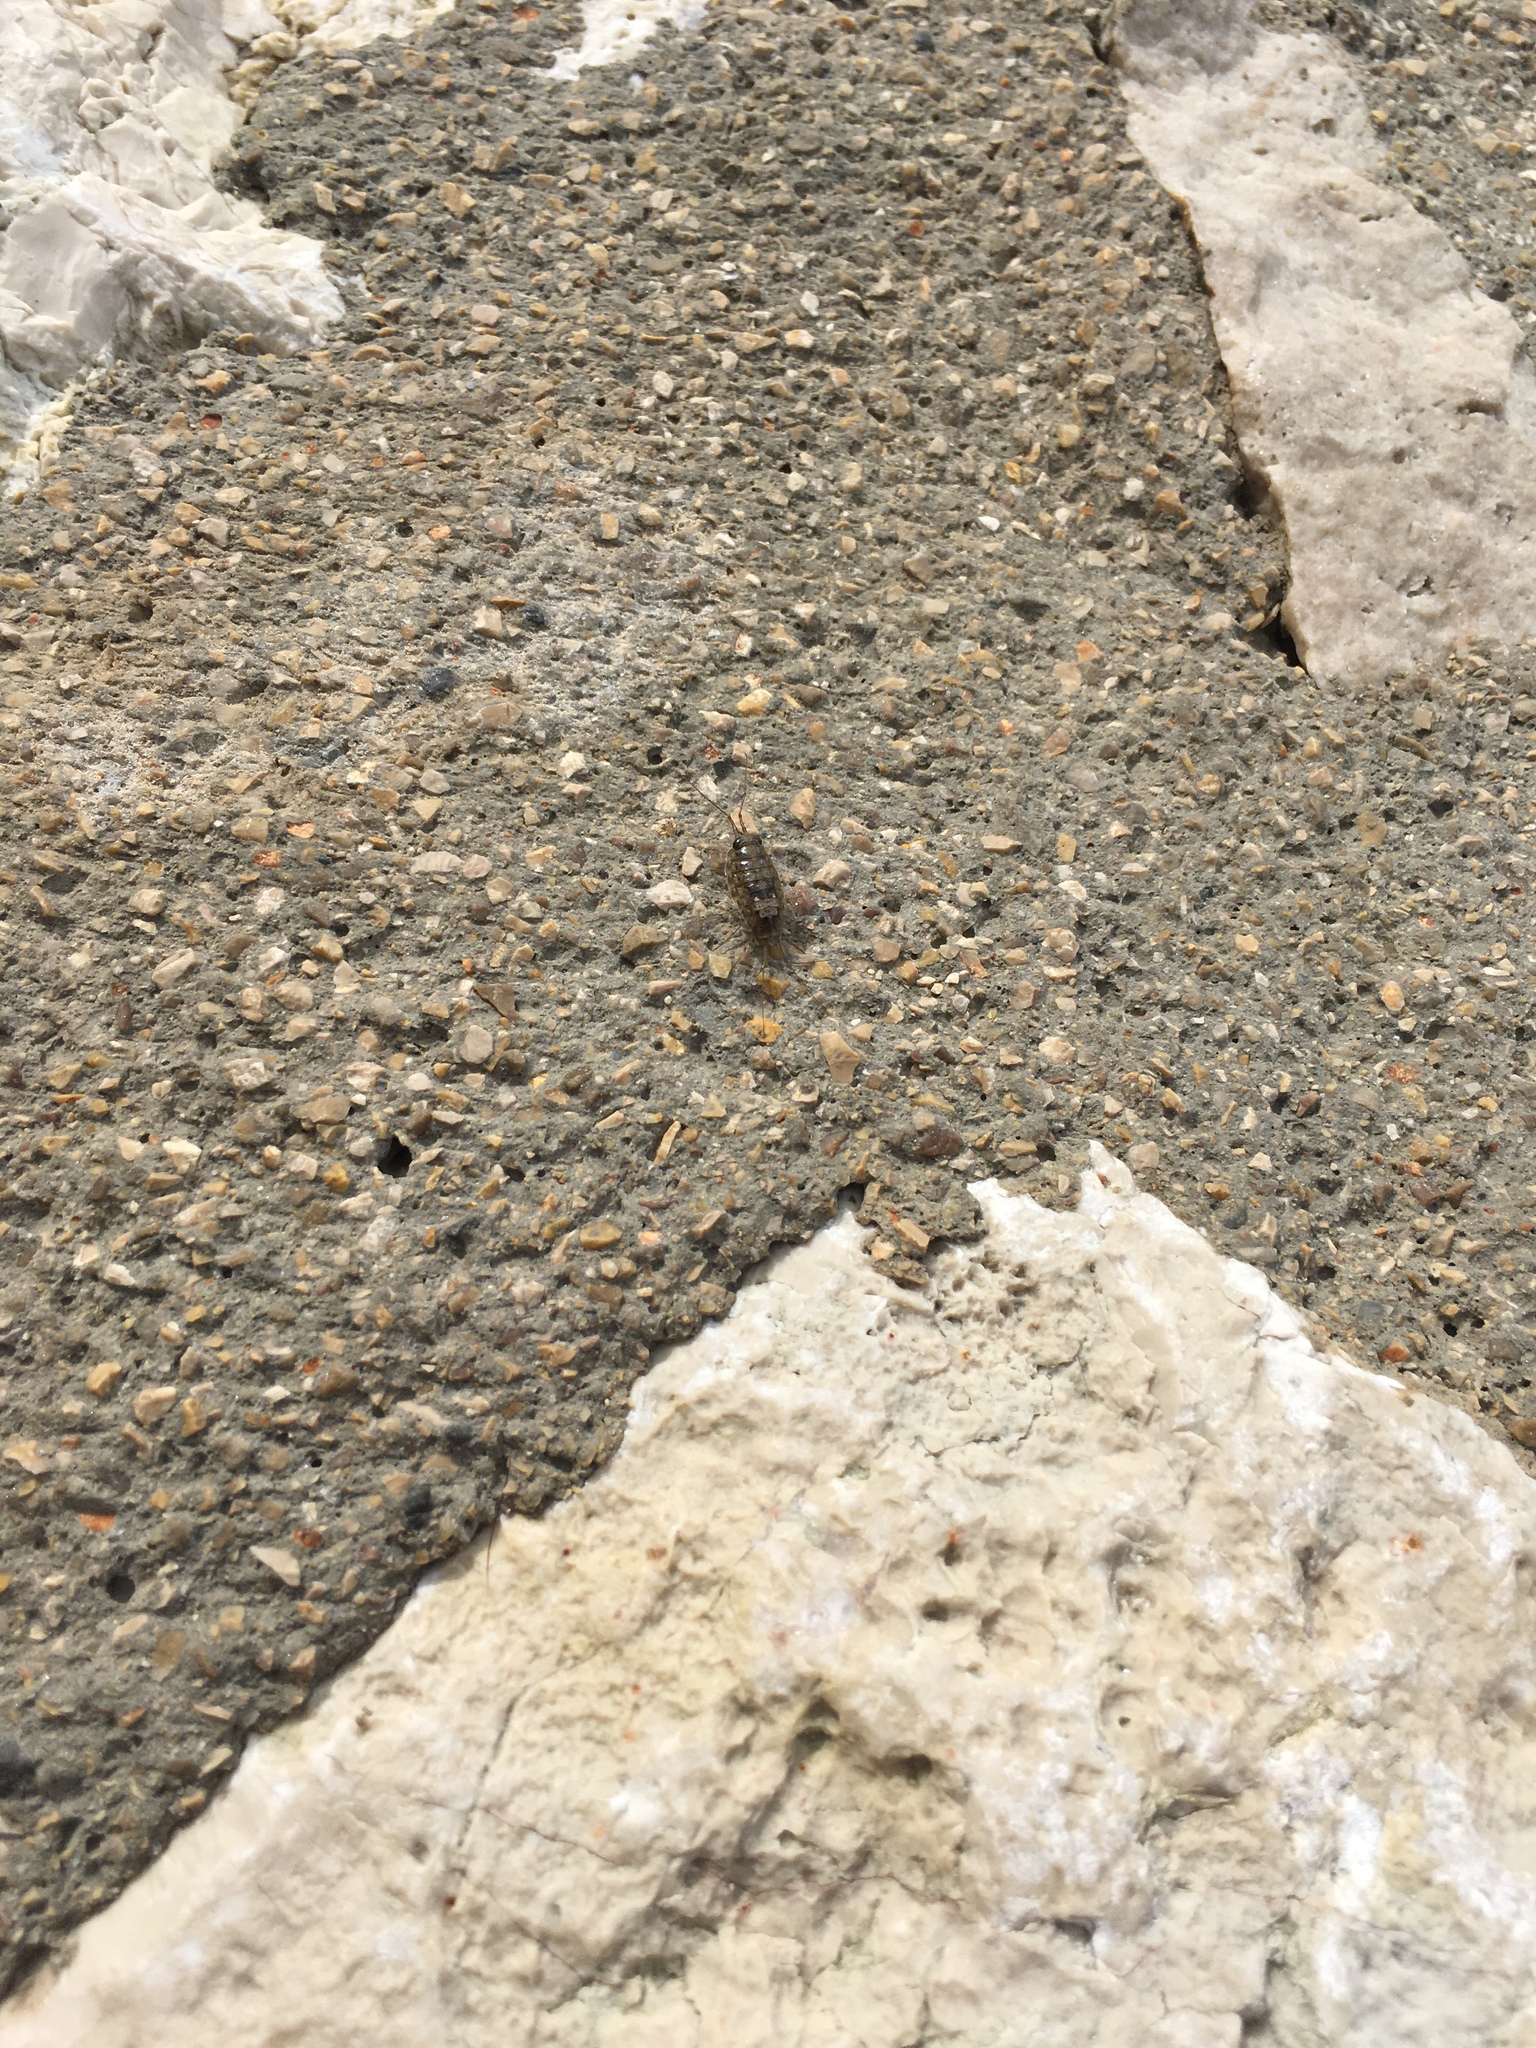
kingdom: Animalia
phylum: Arthropoda
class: Malacostraca
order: Isopoda
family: Ligiidae
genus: Ligia
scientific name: Ligia italica
